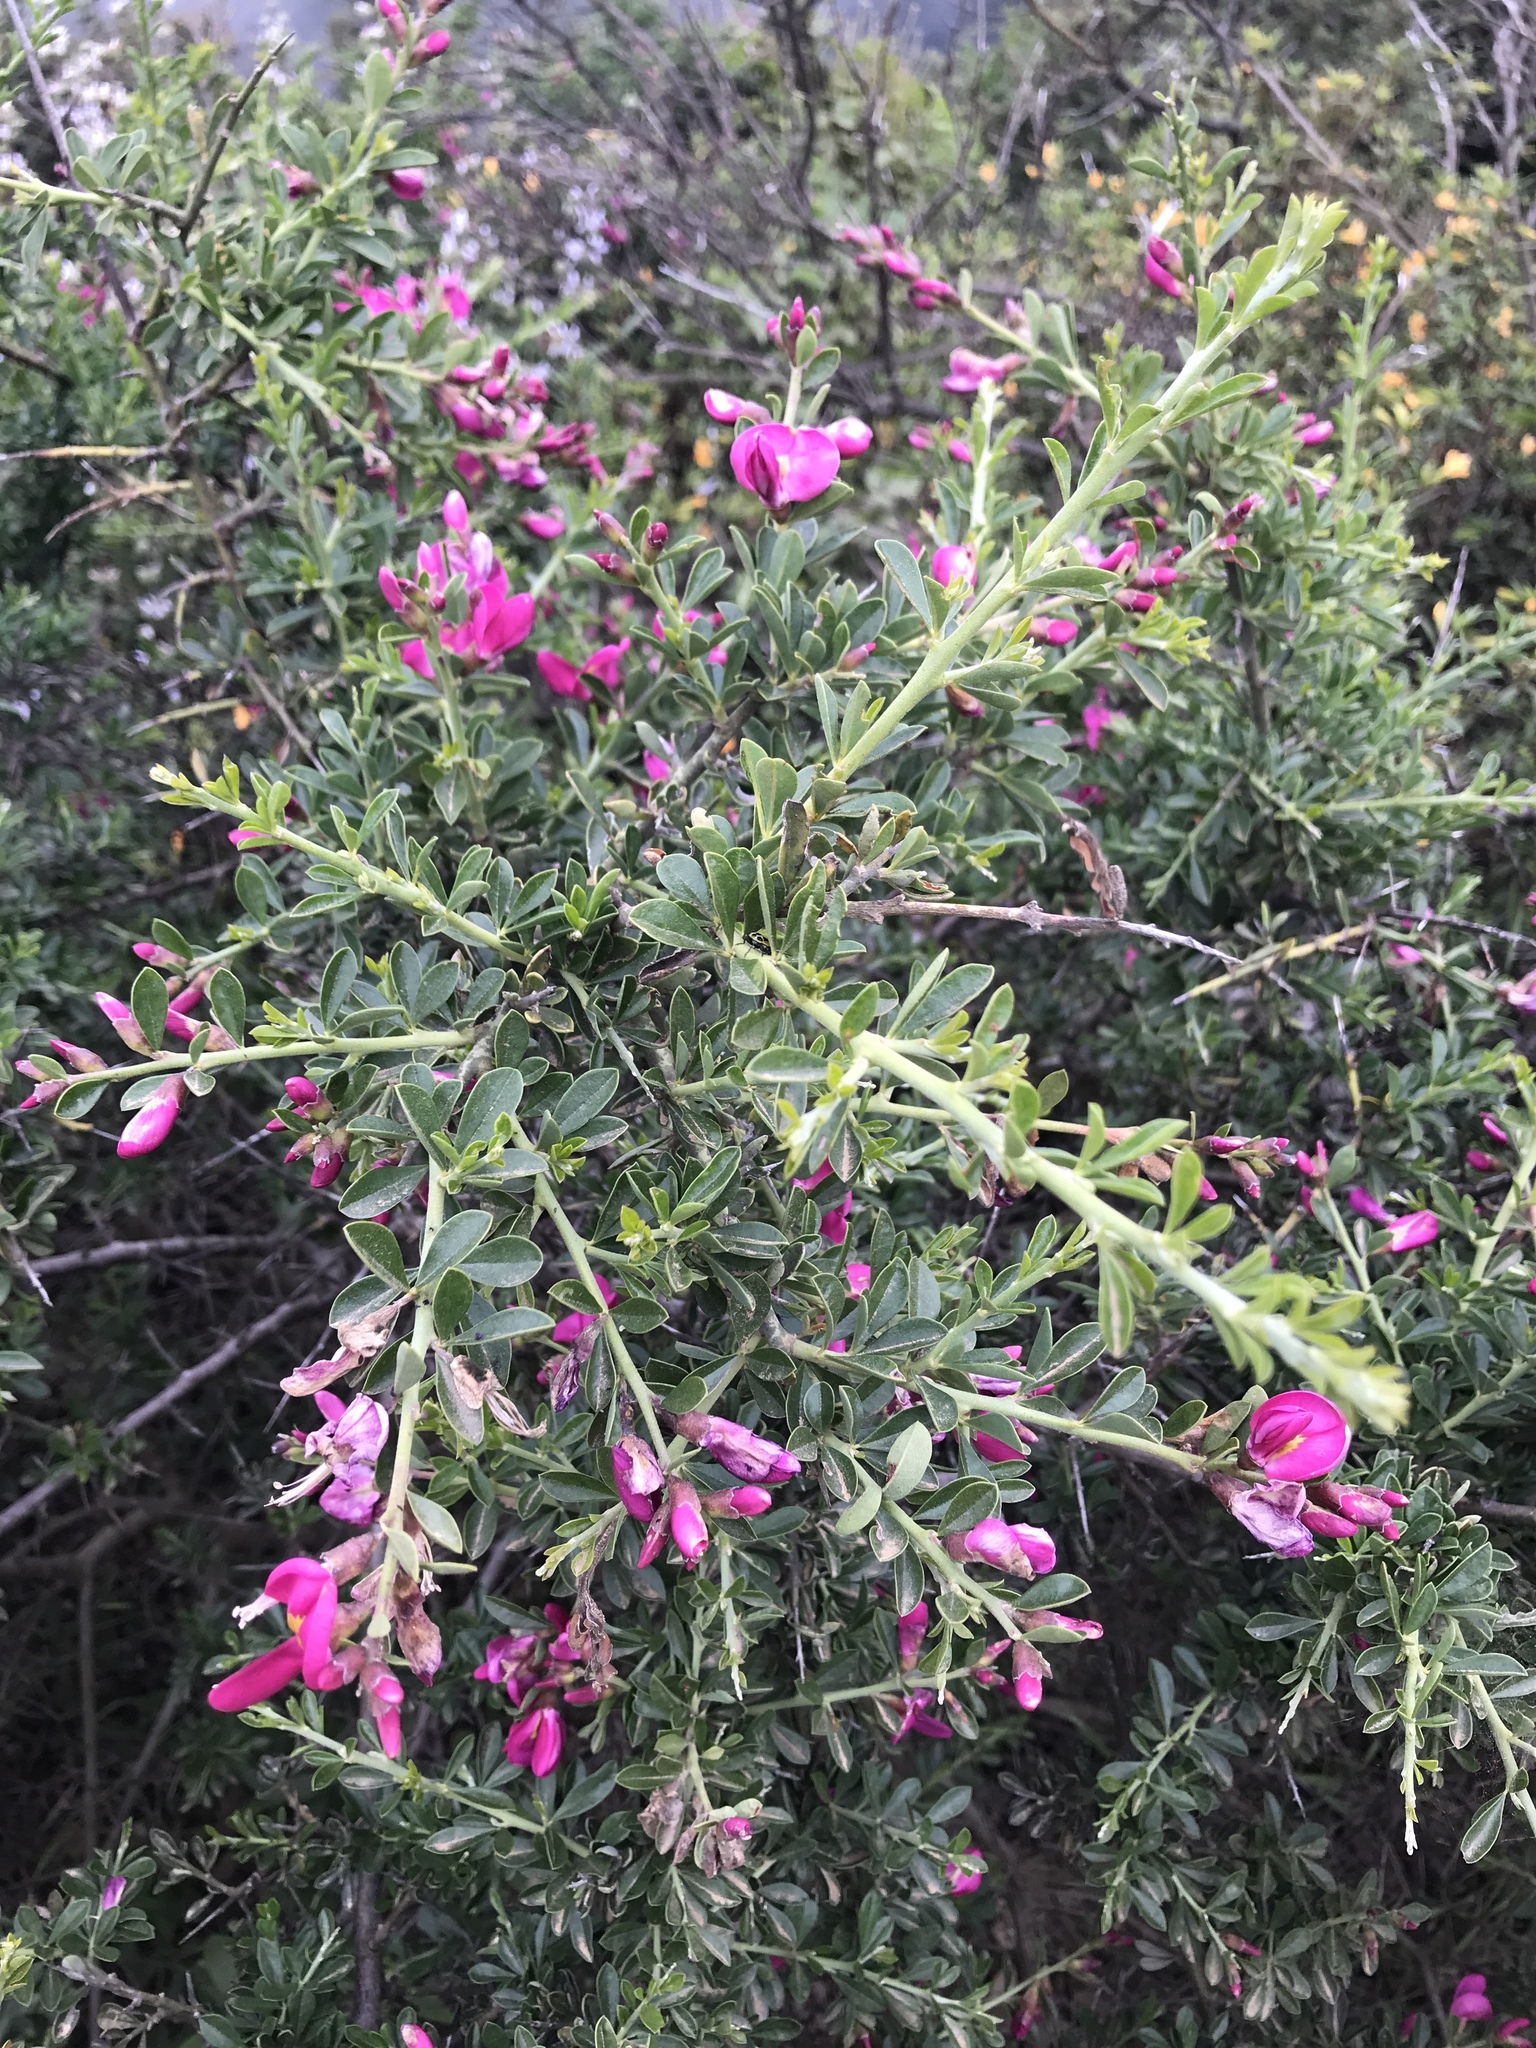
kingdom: Plantae
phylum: Tracheophyta
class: Magnoliopsida
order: Fabales
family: Fabaceae
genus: Pickeringia
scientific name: Pickeringia montana
